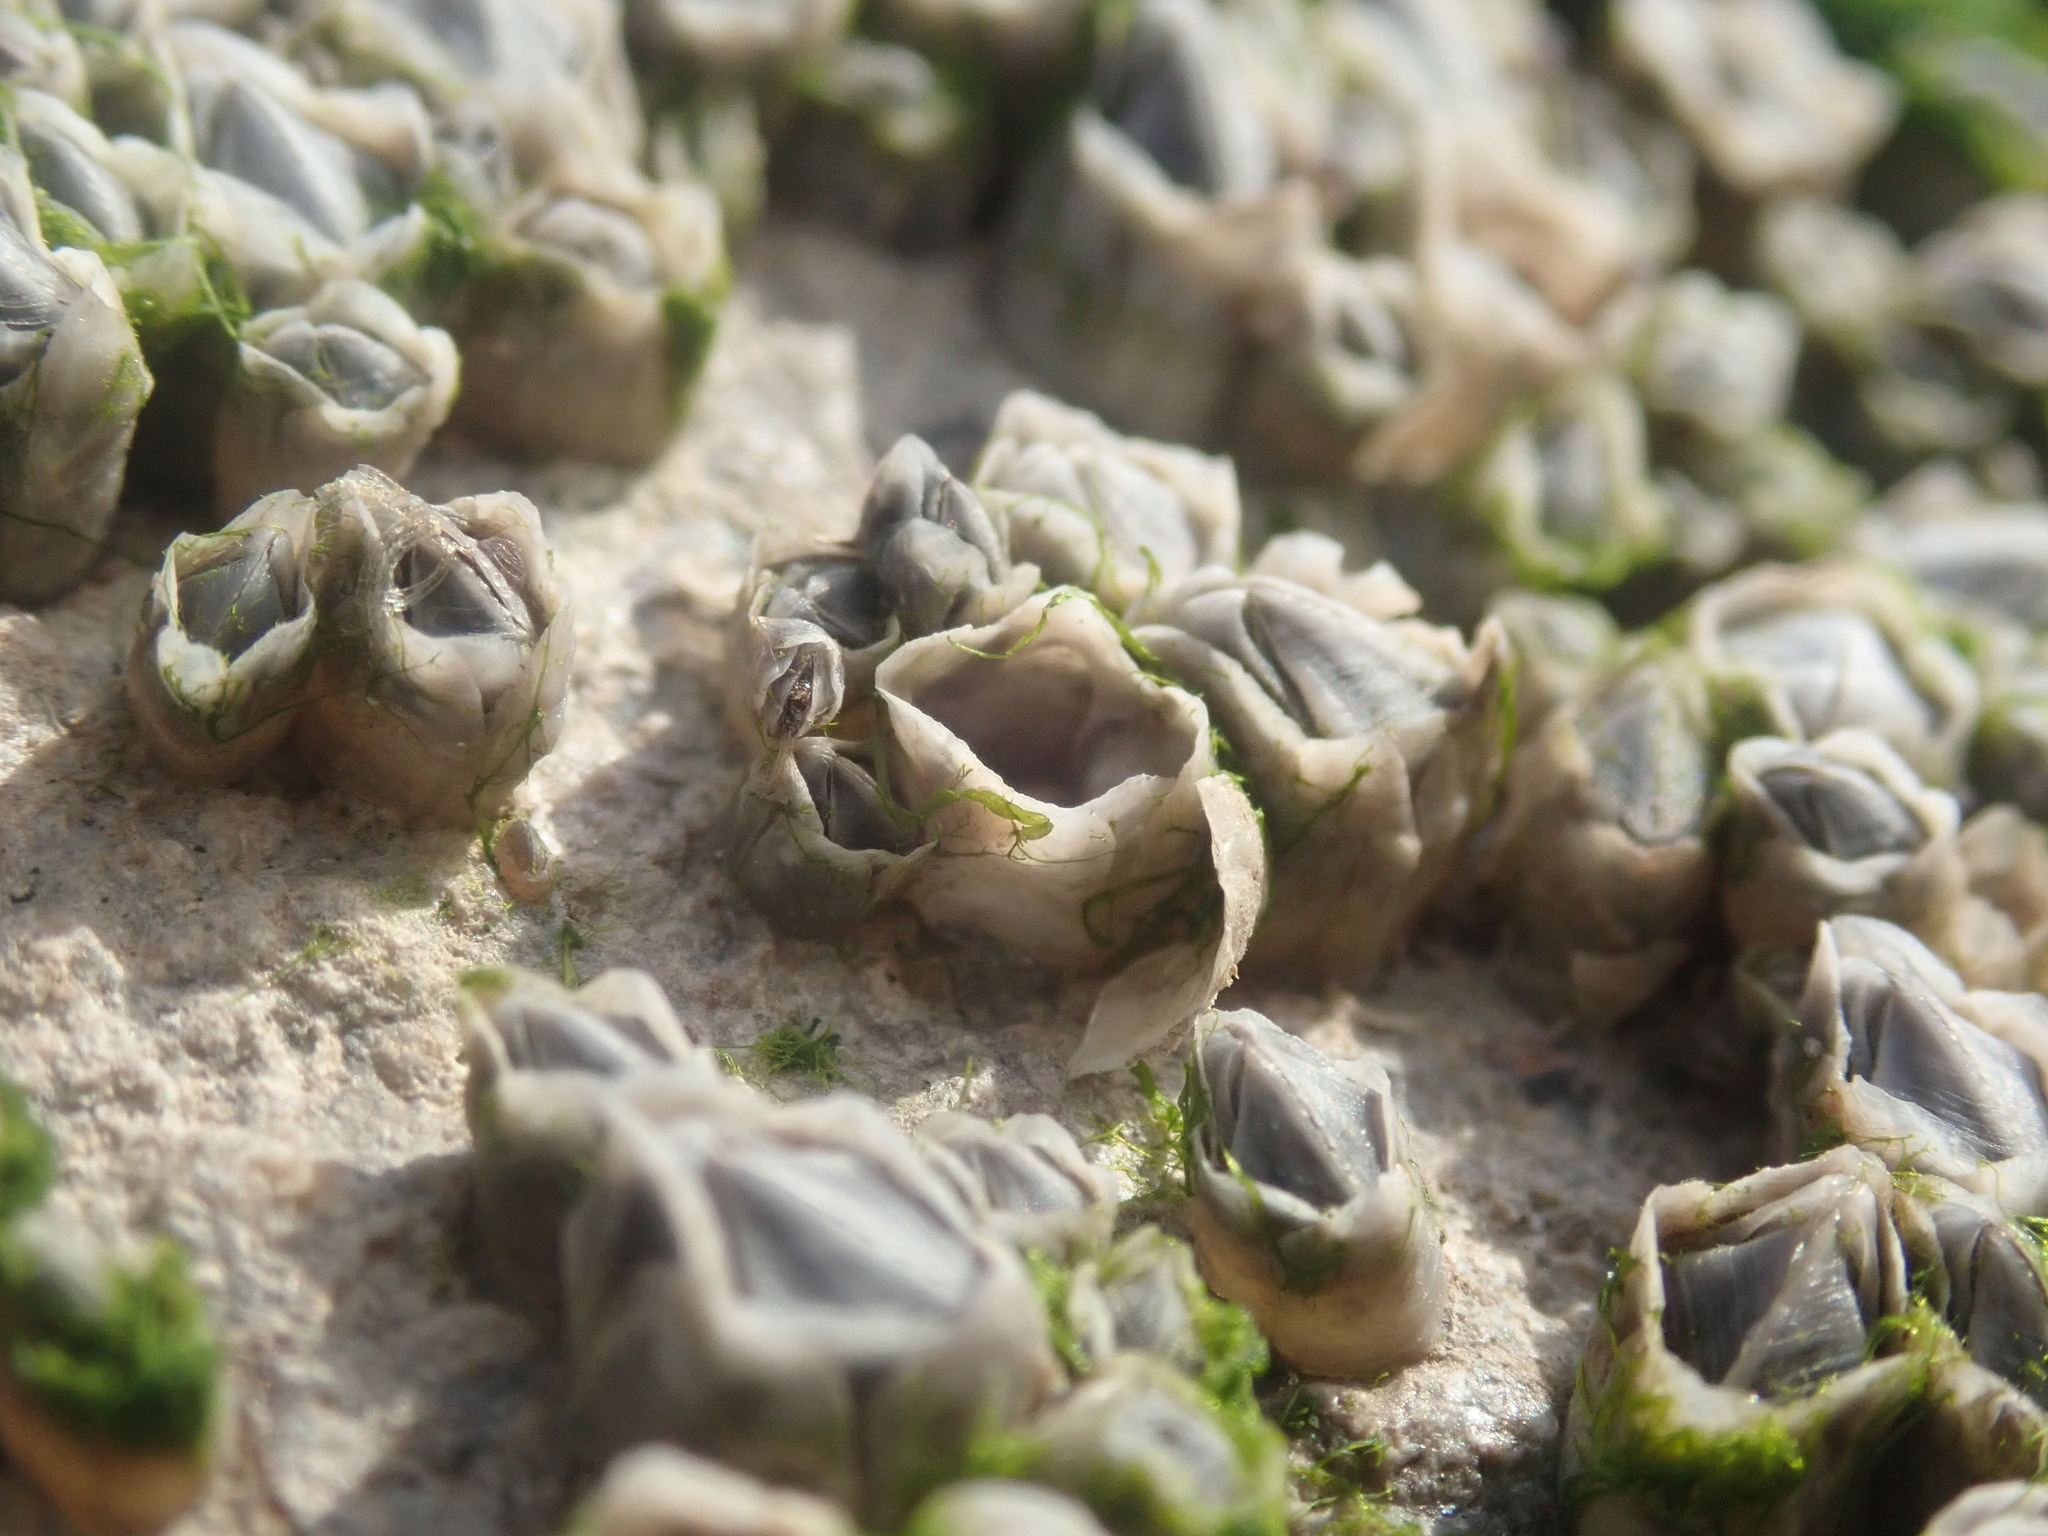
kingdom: Animalia
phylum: Arthropoda
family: Elminiidae
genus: Austrominius
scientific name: Austrominius modestus
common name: Australasian barnacle
